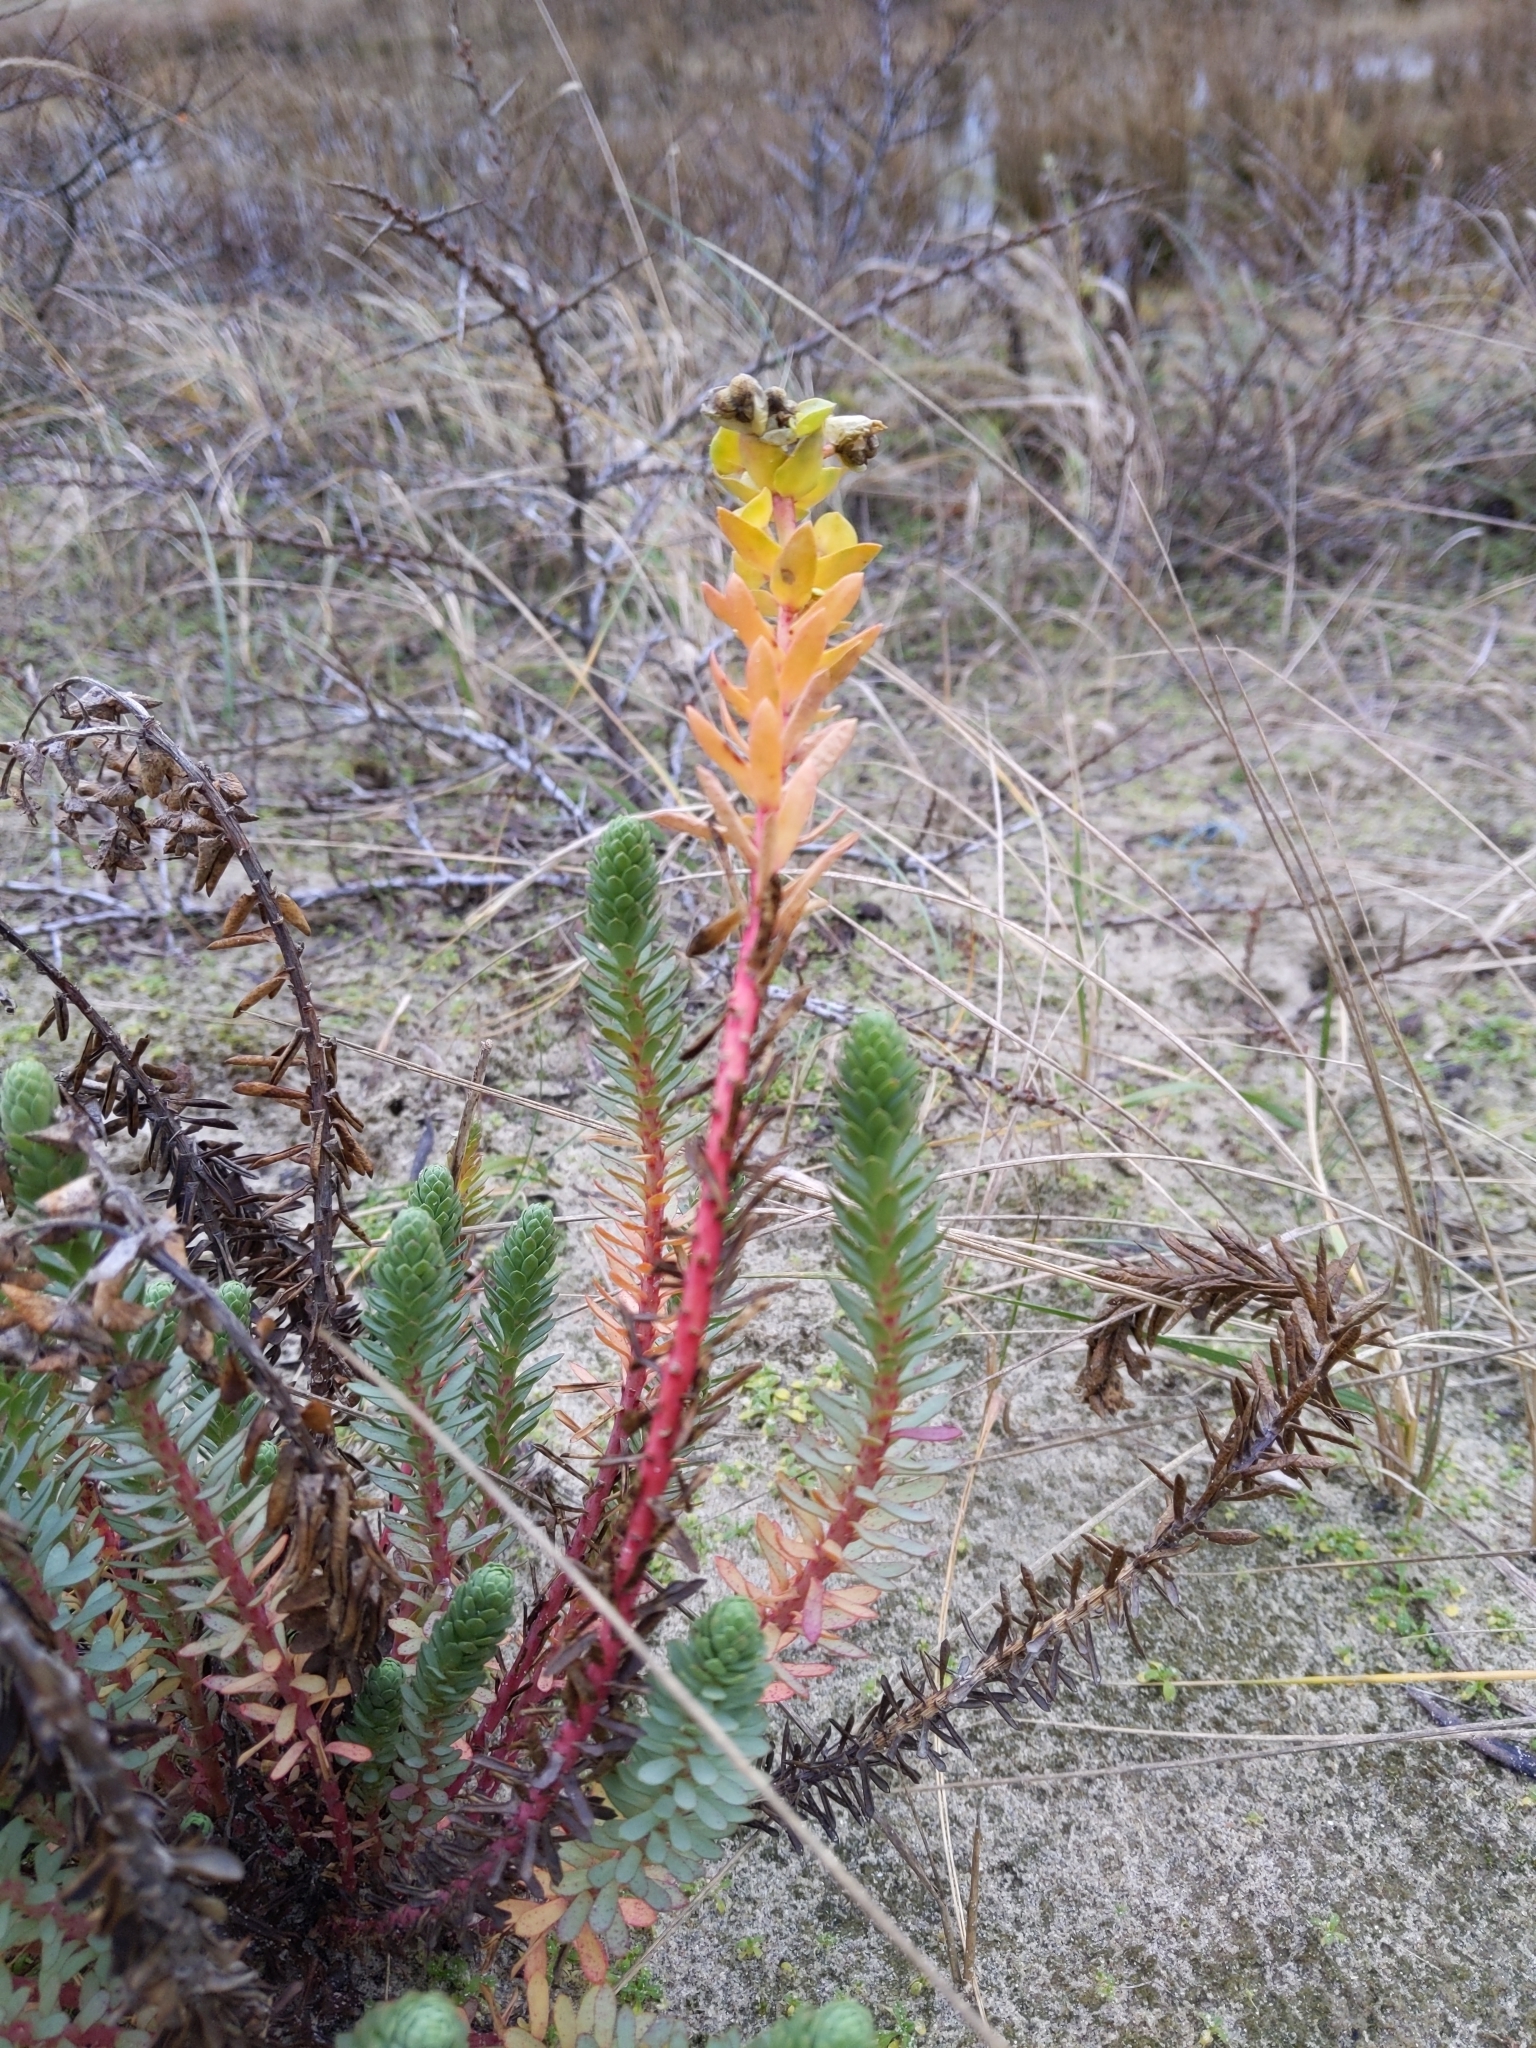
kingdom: Plantae
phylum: Tracheophyta
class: Magnoliopsida
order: Malpighiales
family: Euphorbiaceae
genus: Euphorbia
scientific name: Euphorbia paralias
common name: Sea spurge
